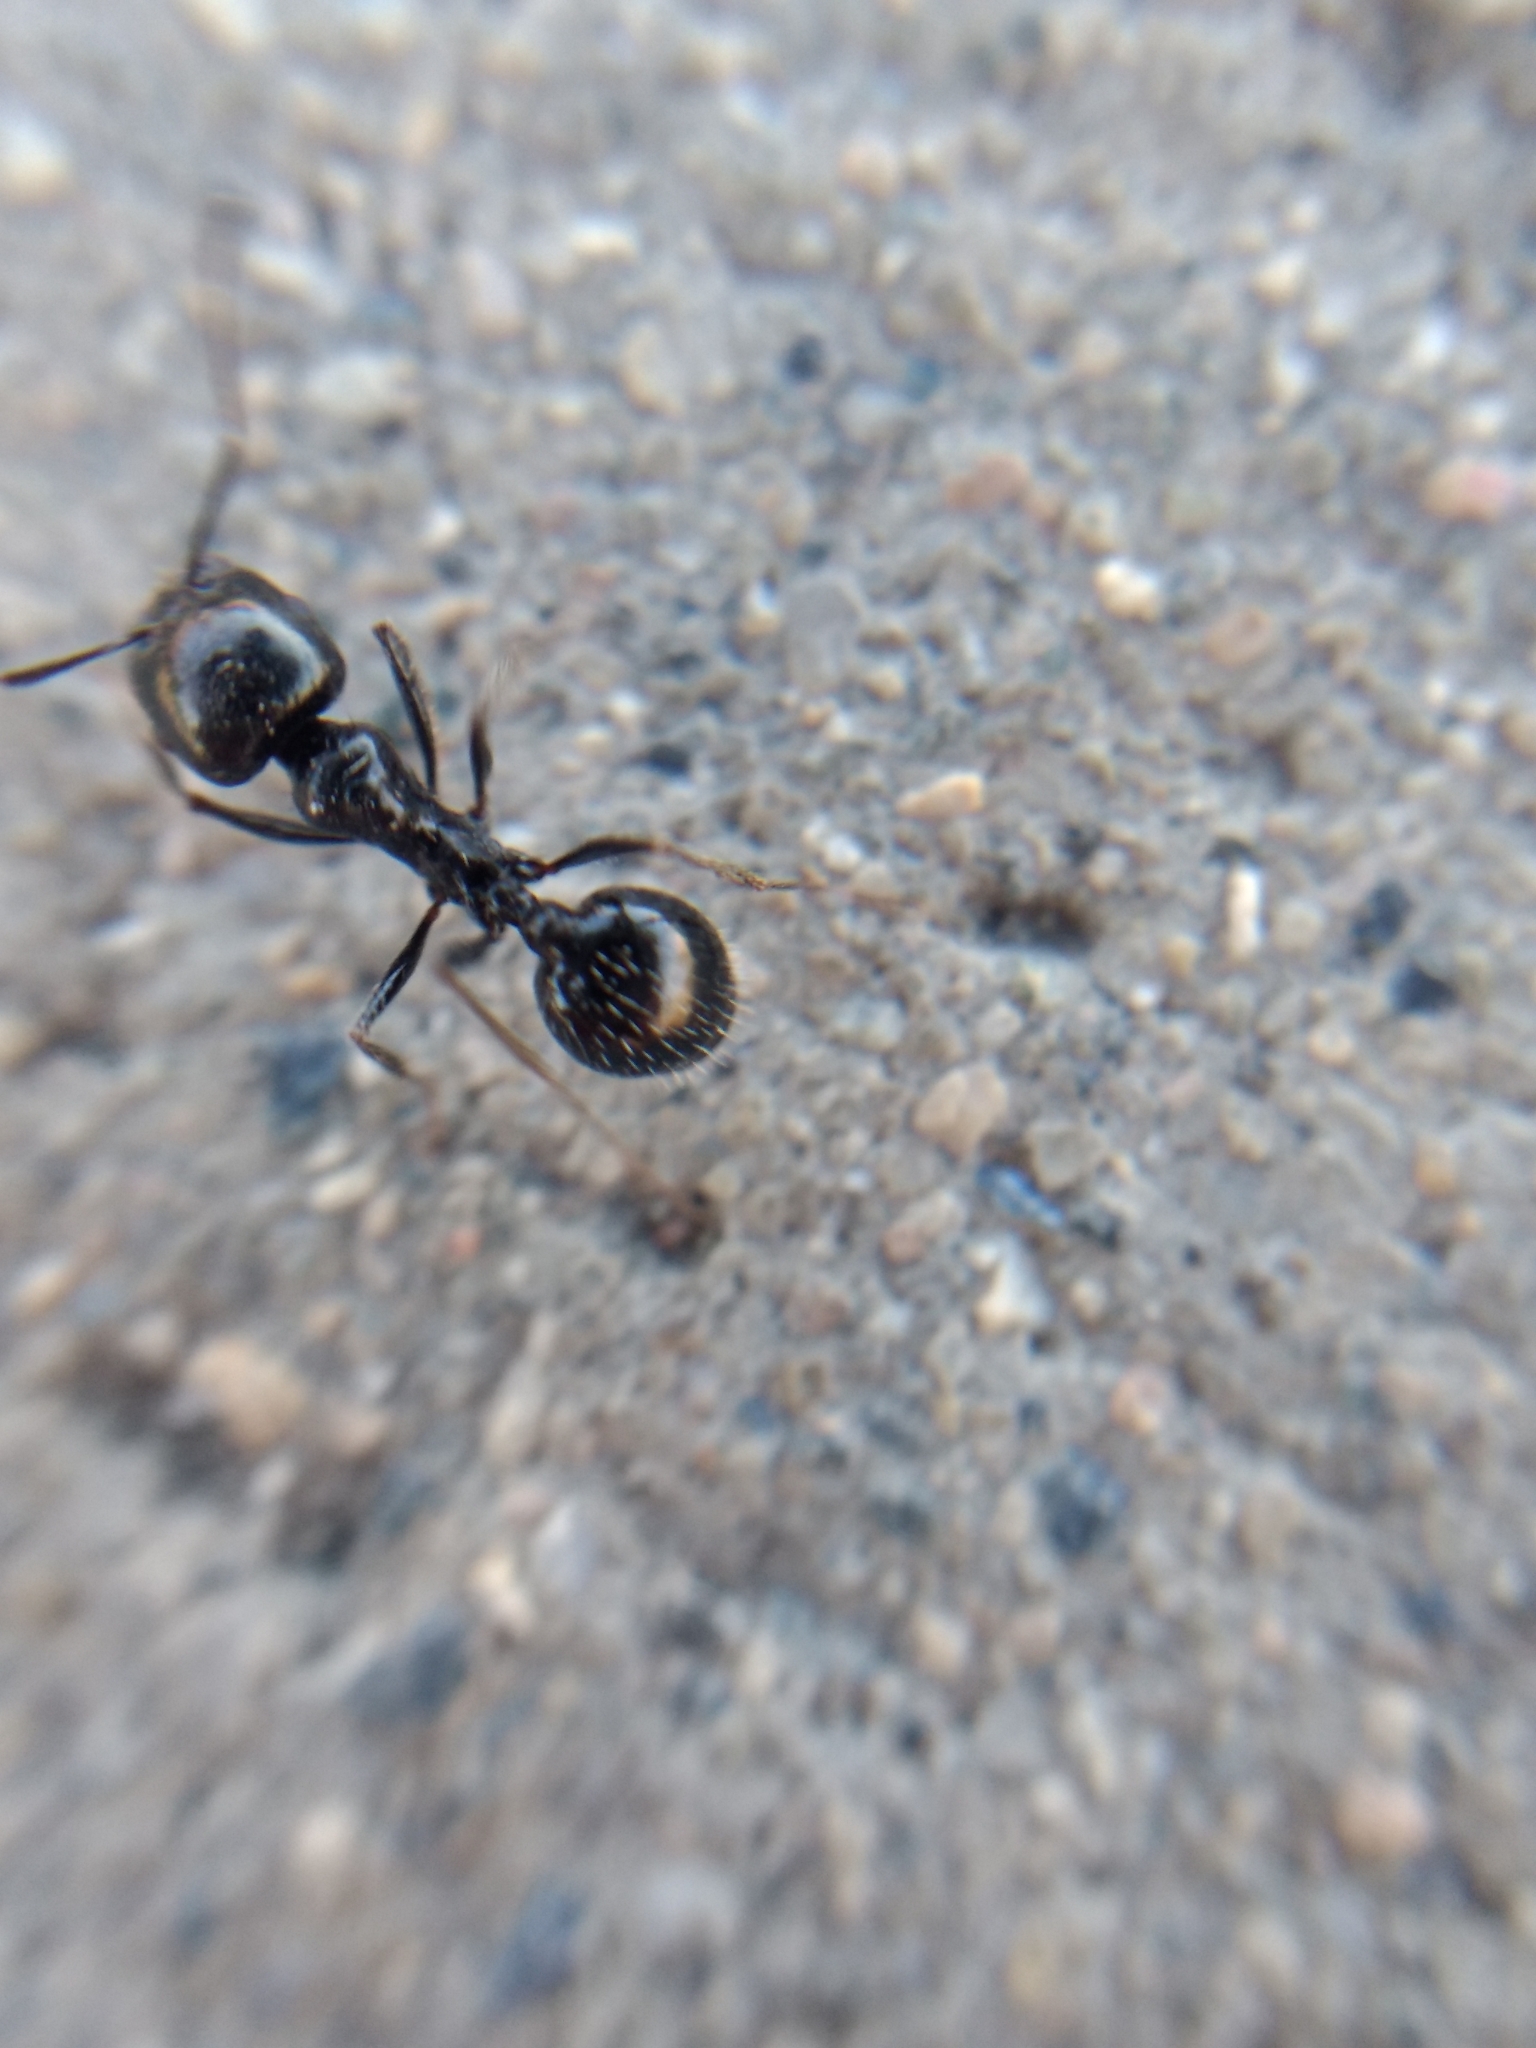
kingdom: Animalia
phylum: Arthropoda
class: Insecta
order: Hymenoptera
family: Formicidae
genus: Messor
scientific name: Messor pergandei
